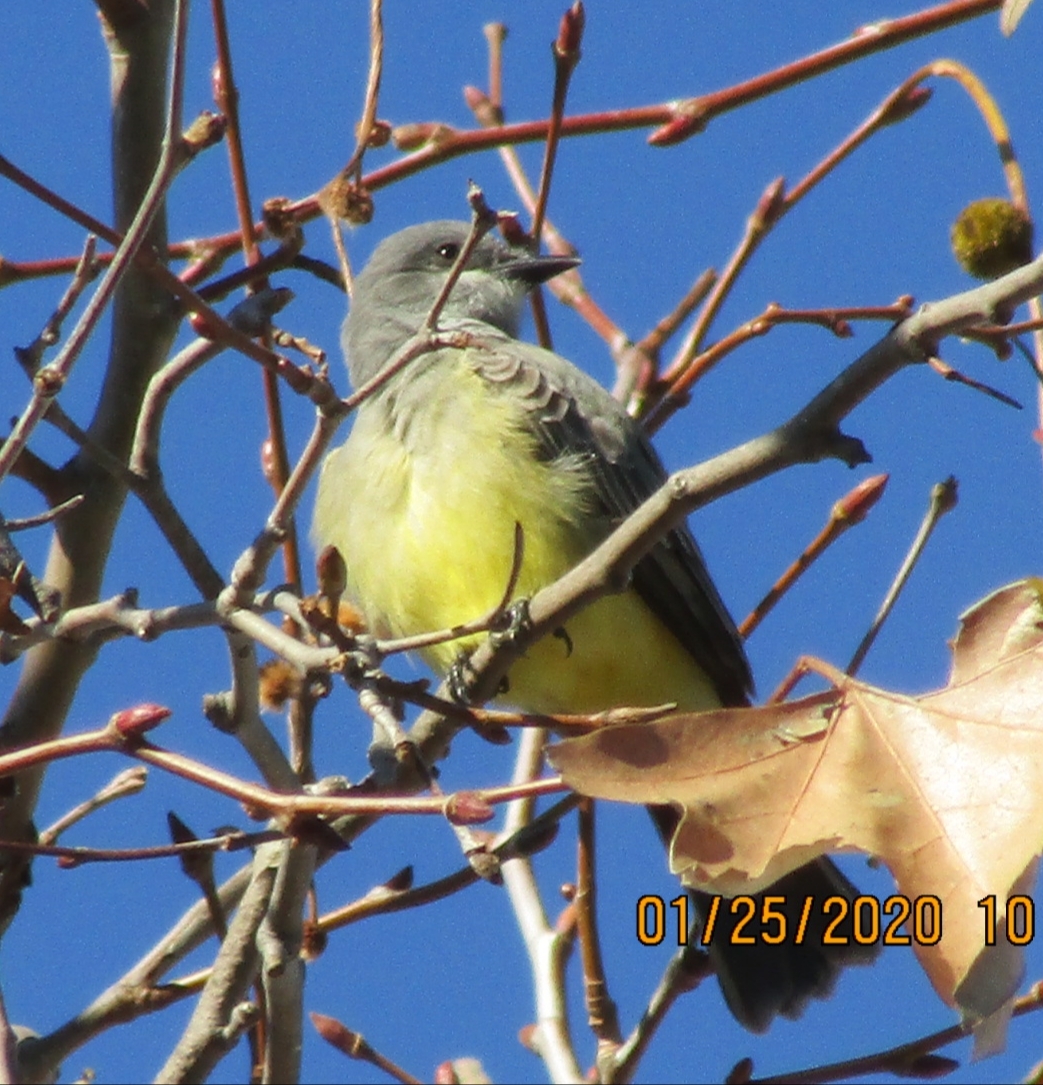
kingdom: Animalia
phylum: Chordata
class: Aves
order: Passeriformes
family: Tyrannidae
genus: Tyrannus
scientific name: Tyrannus vociferans
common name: Cassin's kingbird
